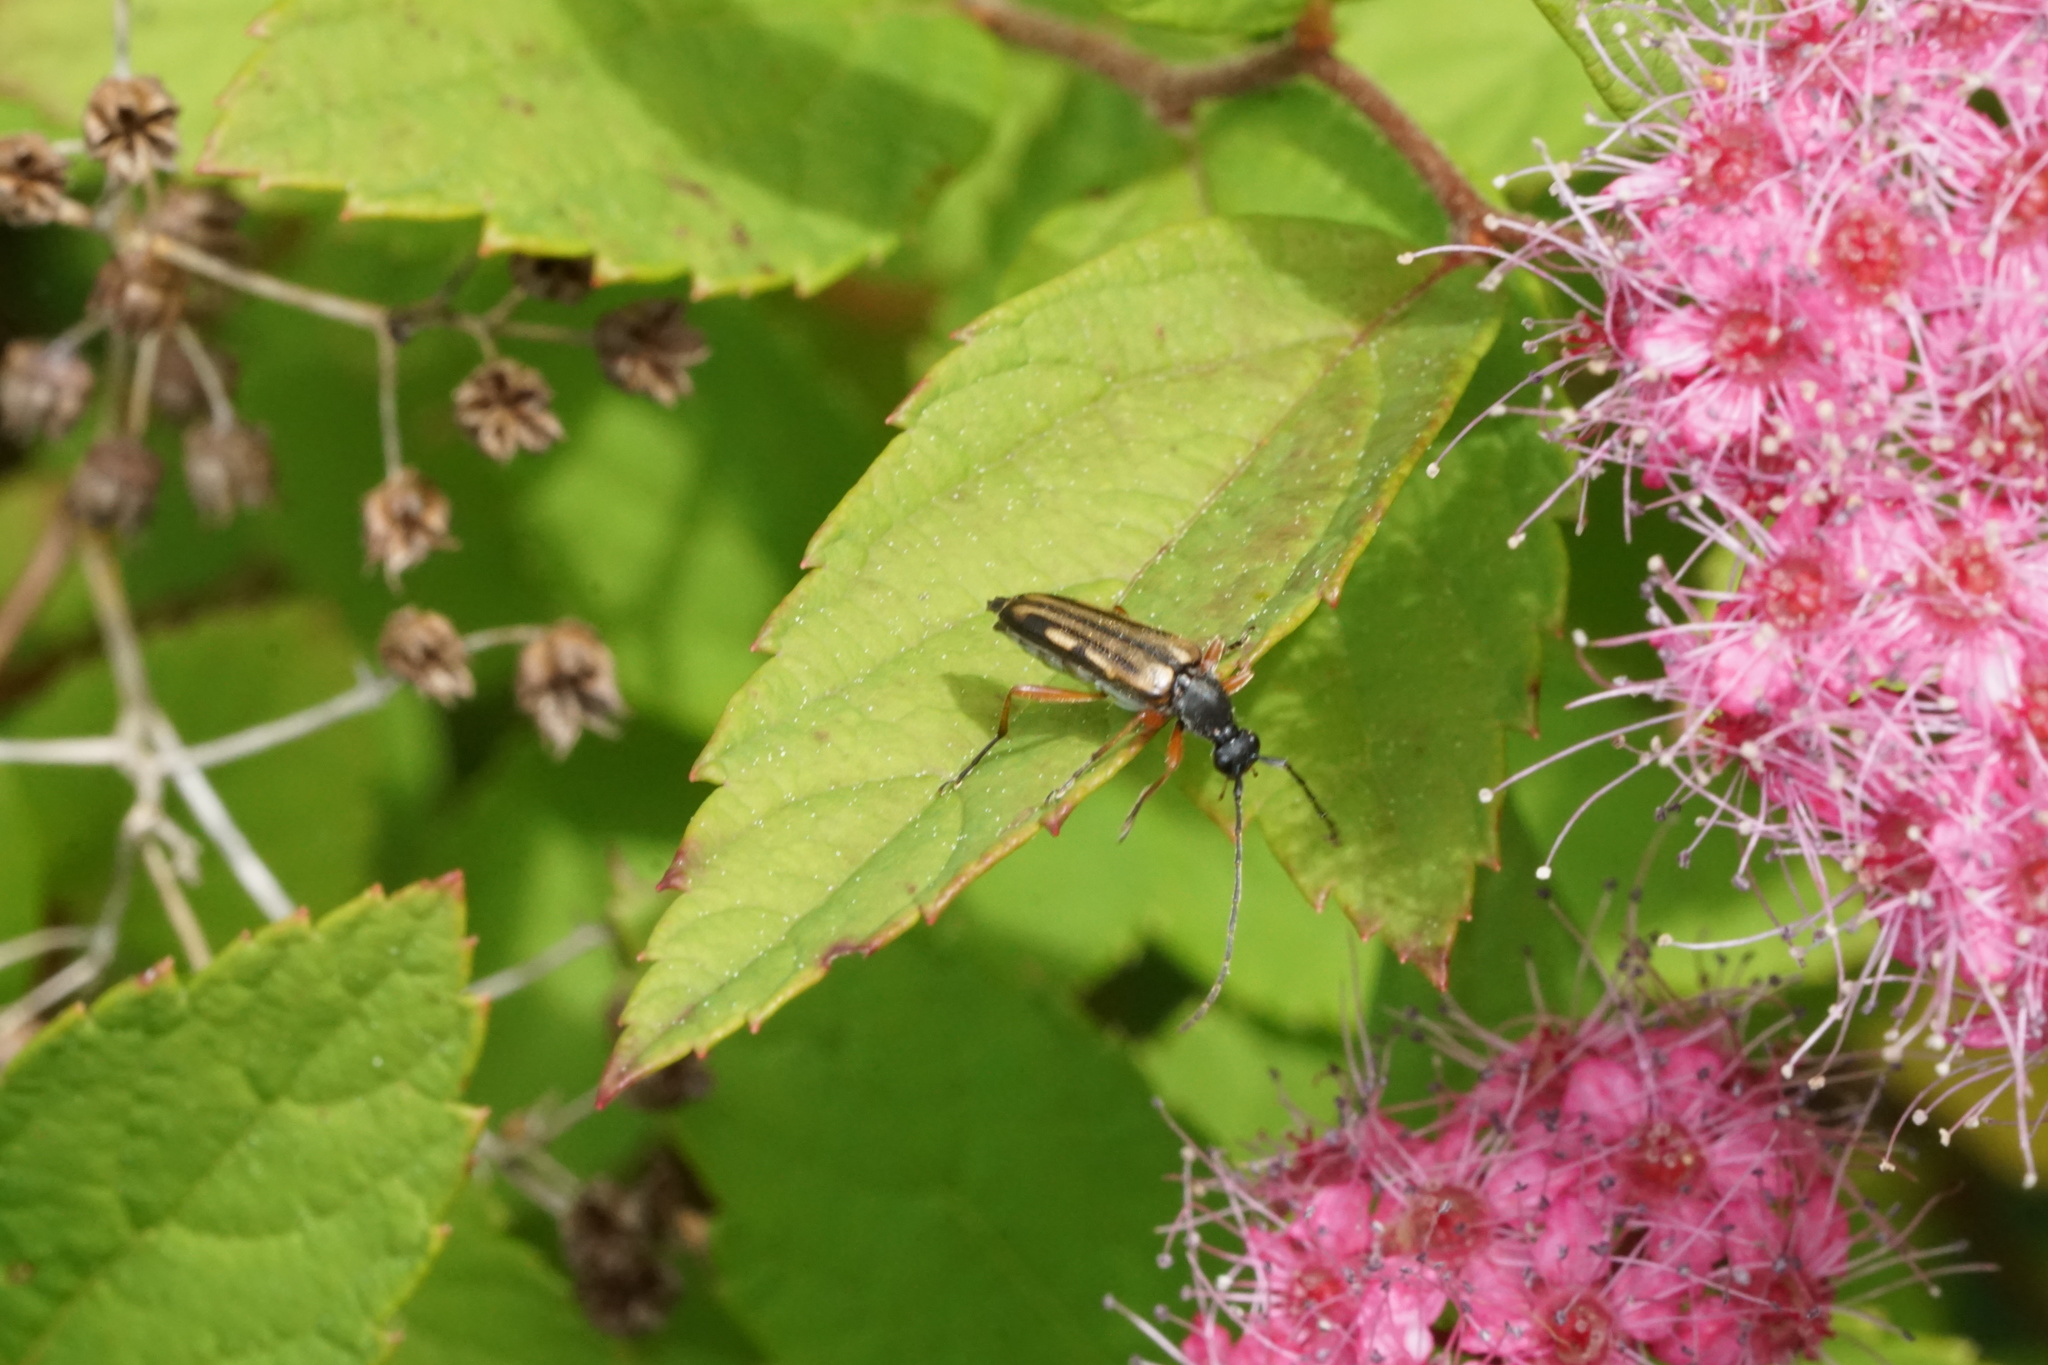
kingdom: Animalia
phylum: Arthropoda
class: Insecta
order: Coleoptera
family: Cerambycidae
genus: Analeptura
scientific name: Analeptura lineola
